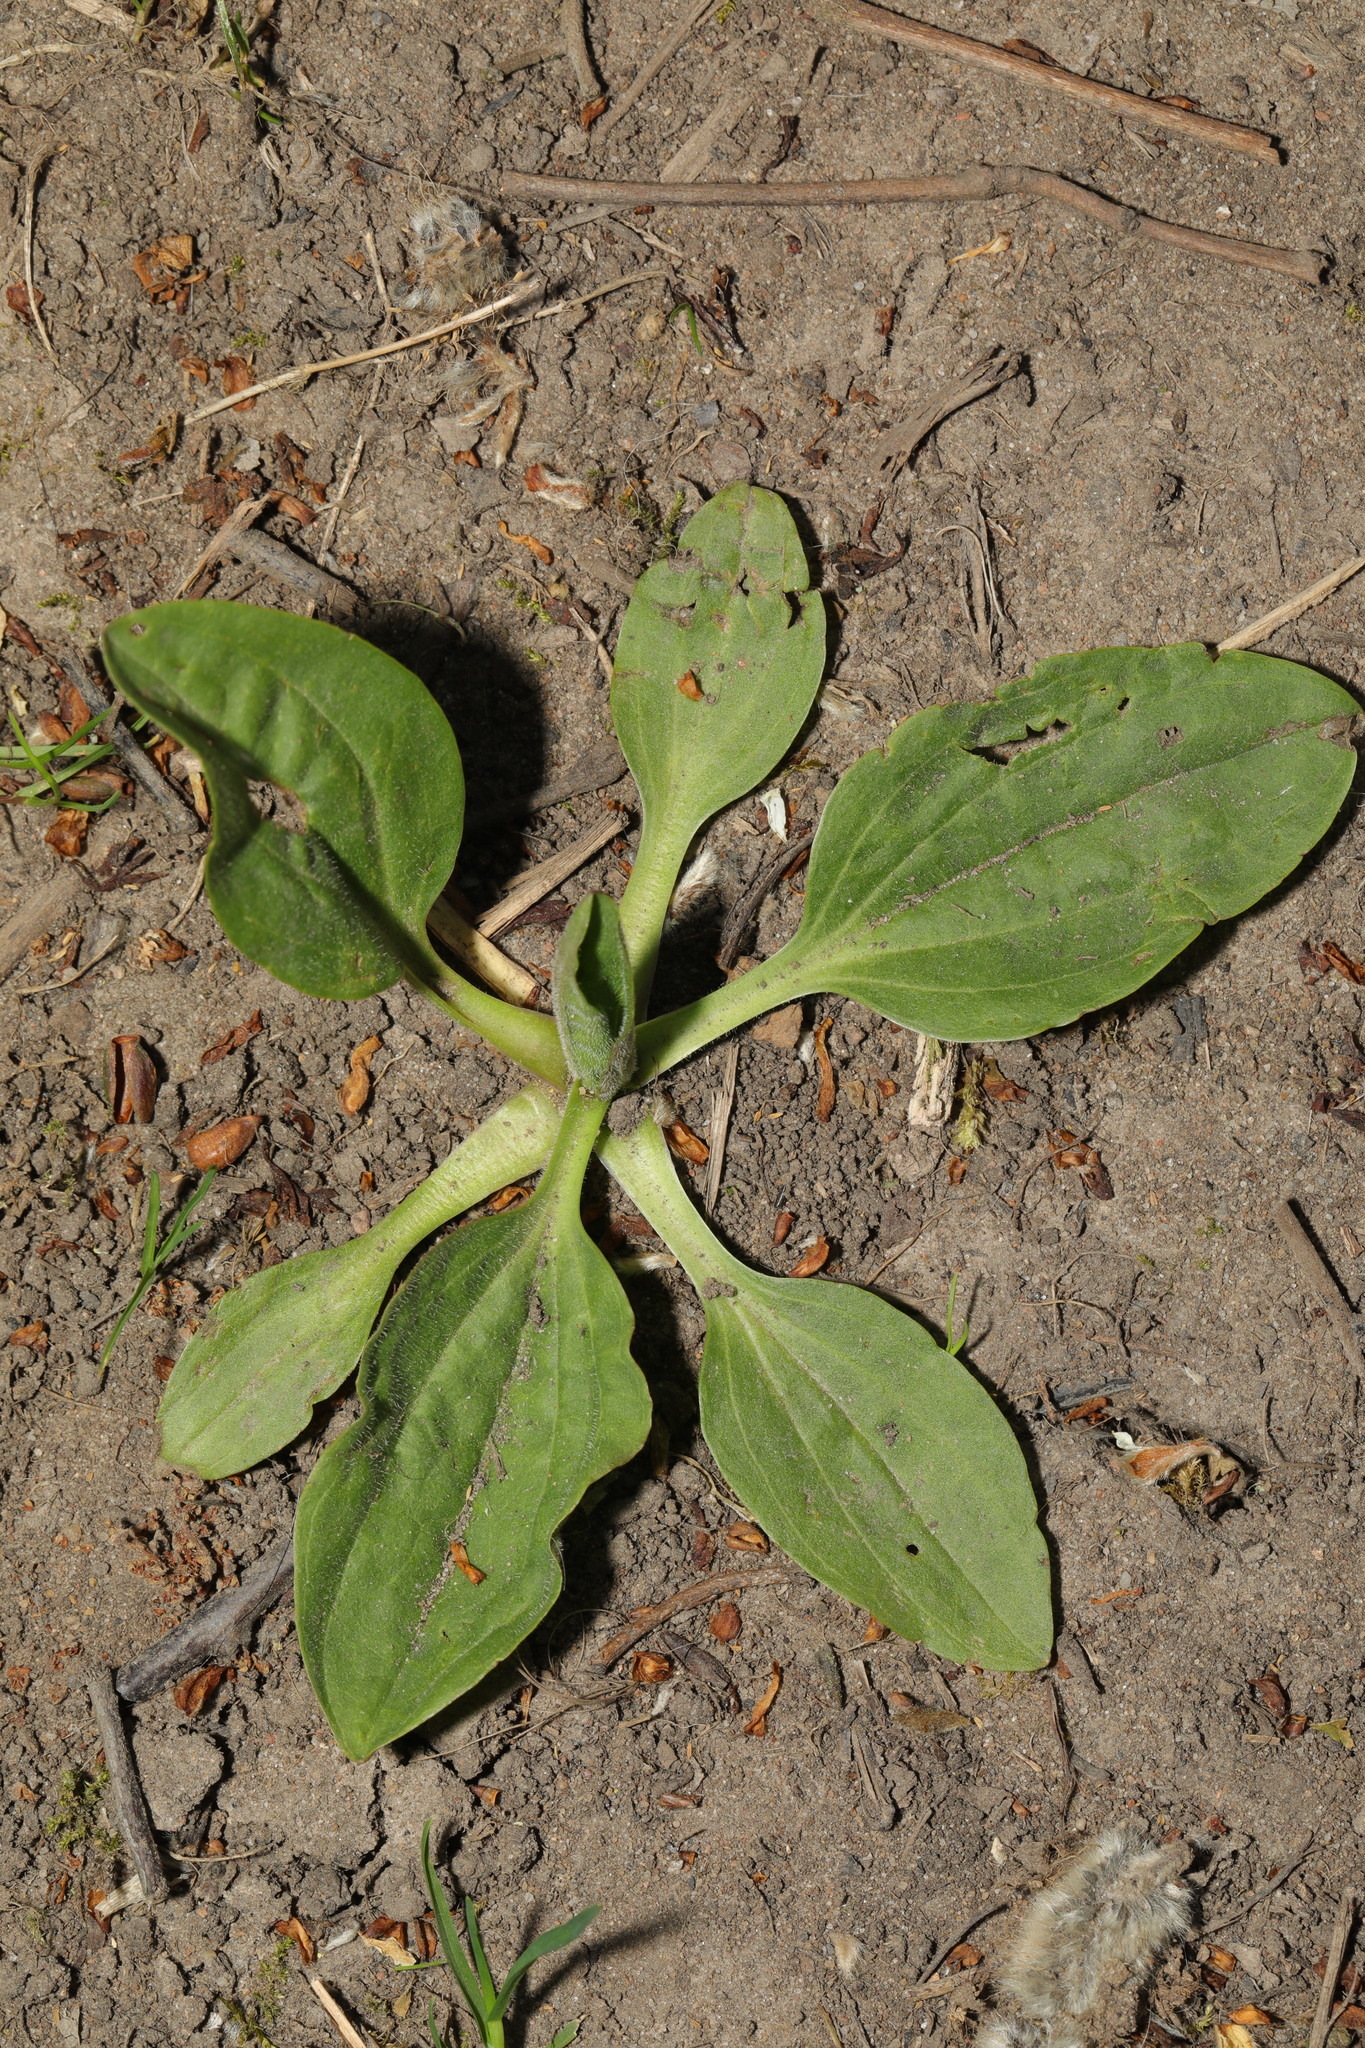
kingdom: Plantae
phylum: Tracheophyta
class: Magnoliopsida
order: Lamiales
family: Plantaginaceae
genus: Plantago
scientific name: Plantago major
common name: Common plantain
